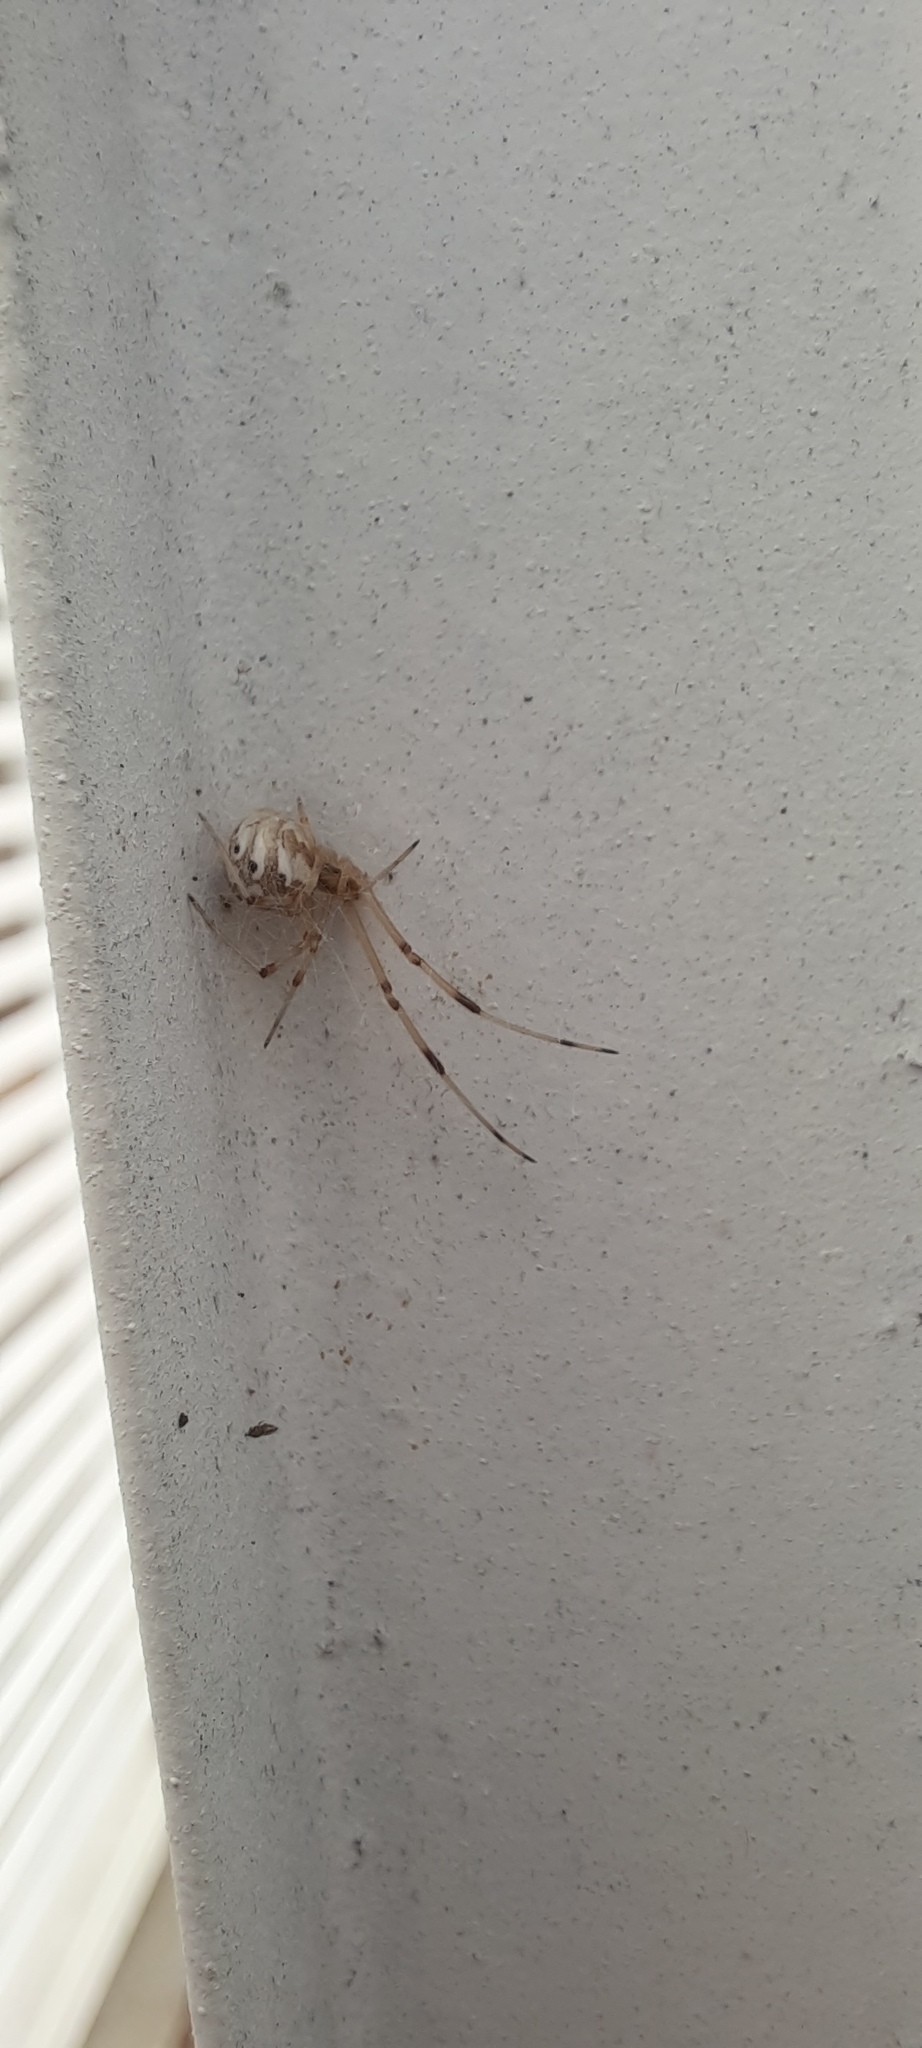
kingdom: Animalia
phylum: Arthropoda
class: Arachnida
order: Araneae
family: Theridiidae
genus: Latrodectus
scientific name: Latrodectus geometricus
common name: Brown widow spider
